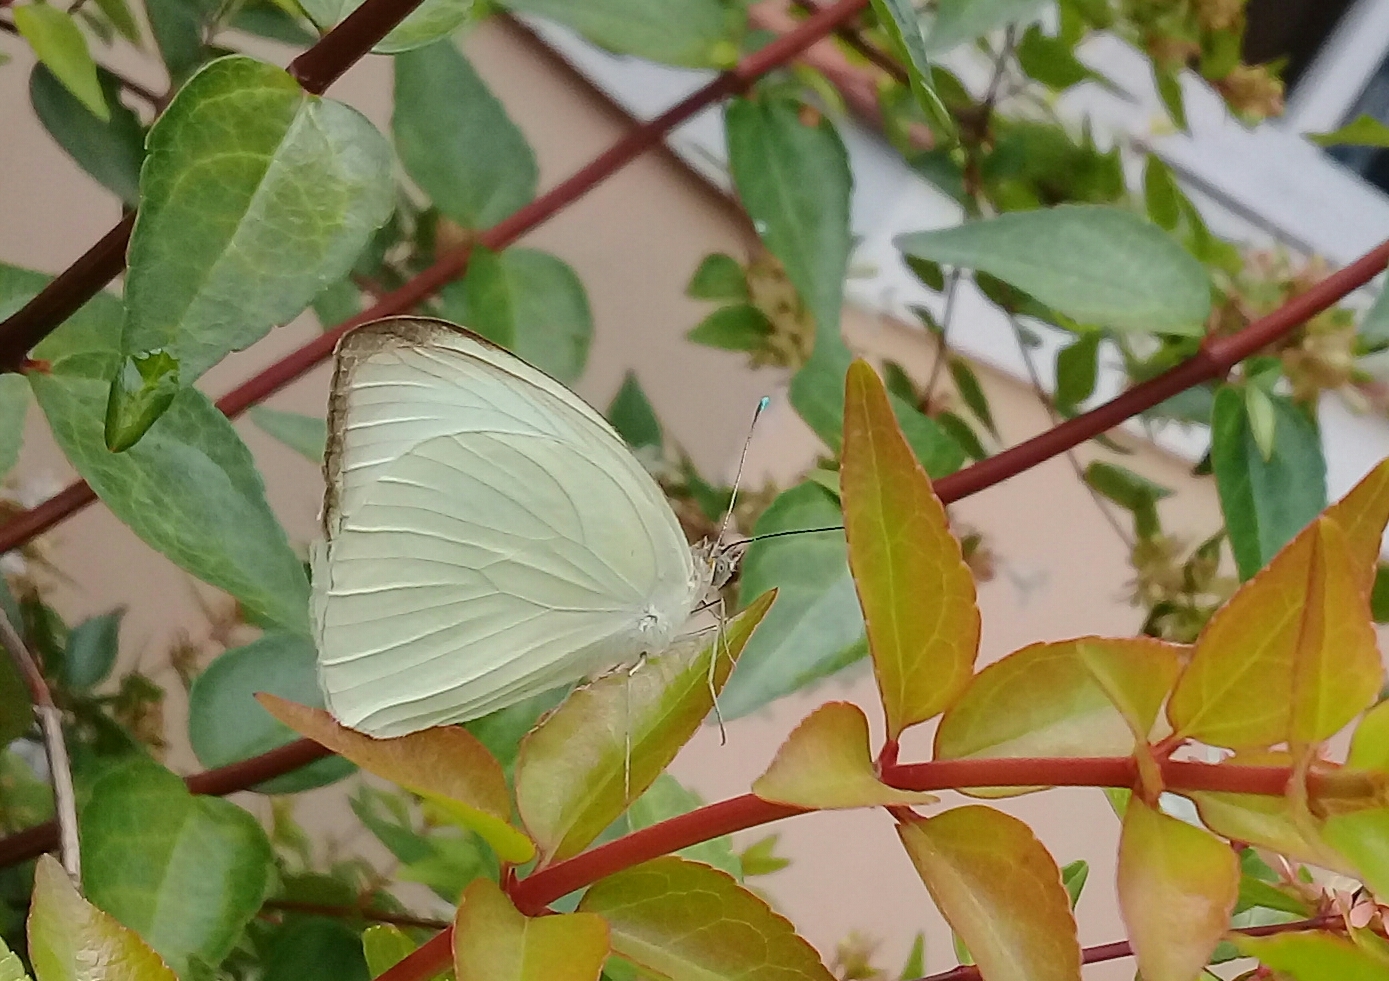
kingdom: Animalia
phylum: Arthropoda
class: Insecta
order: Lepidoptera
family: Pieridae
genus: Ascia
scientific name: Ascia monuste
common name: Great southern white
